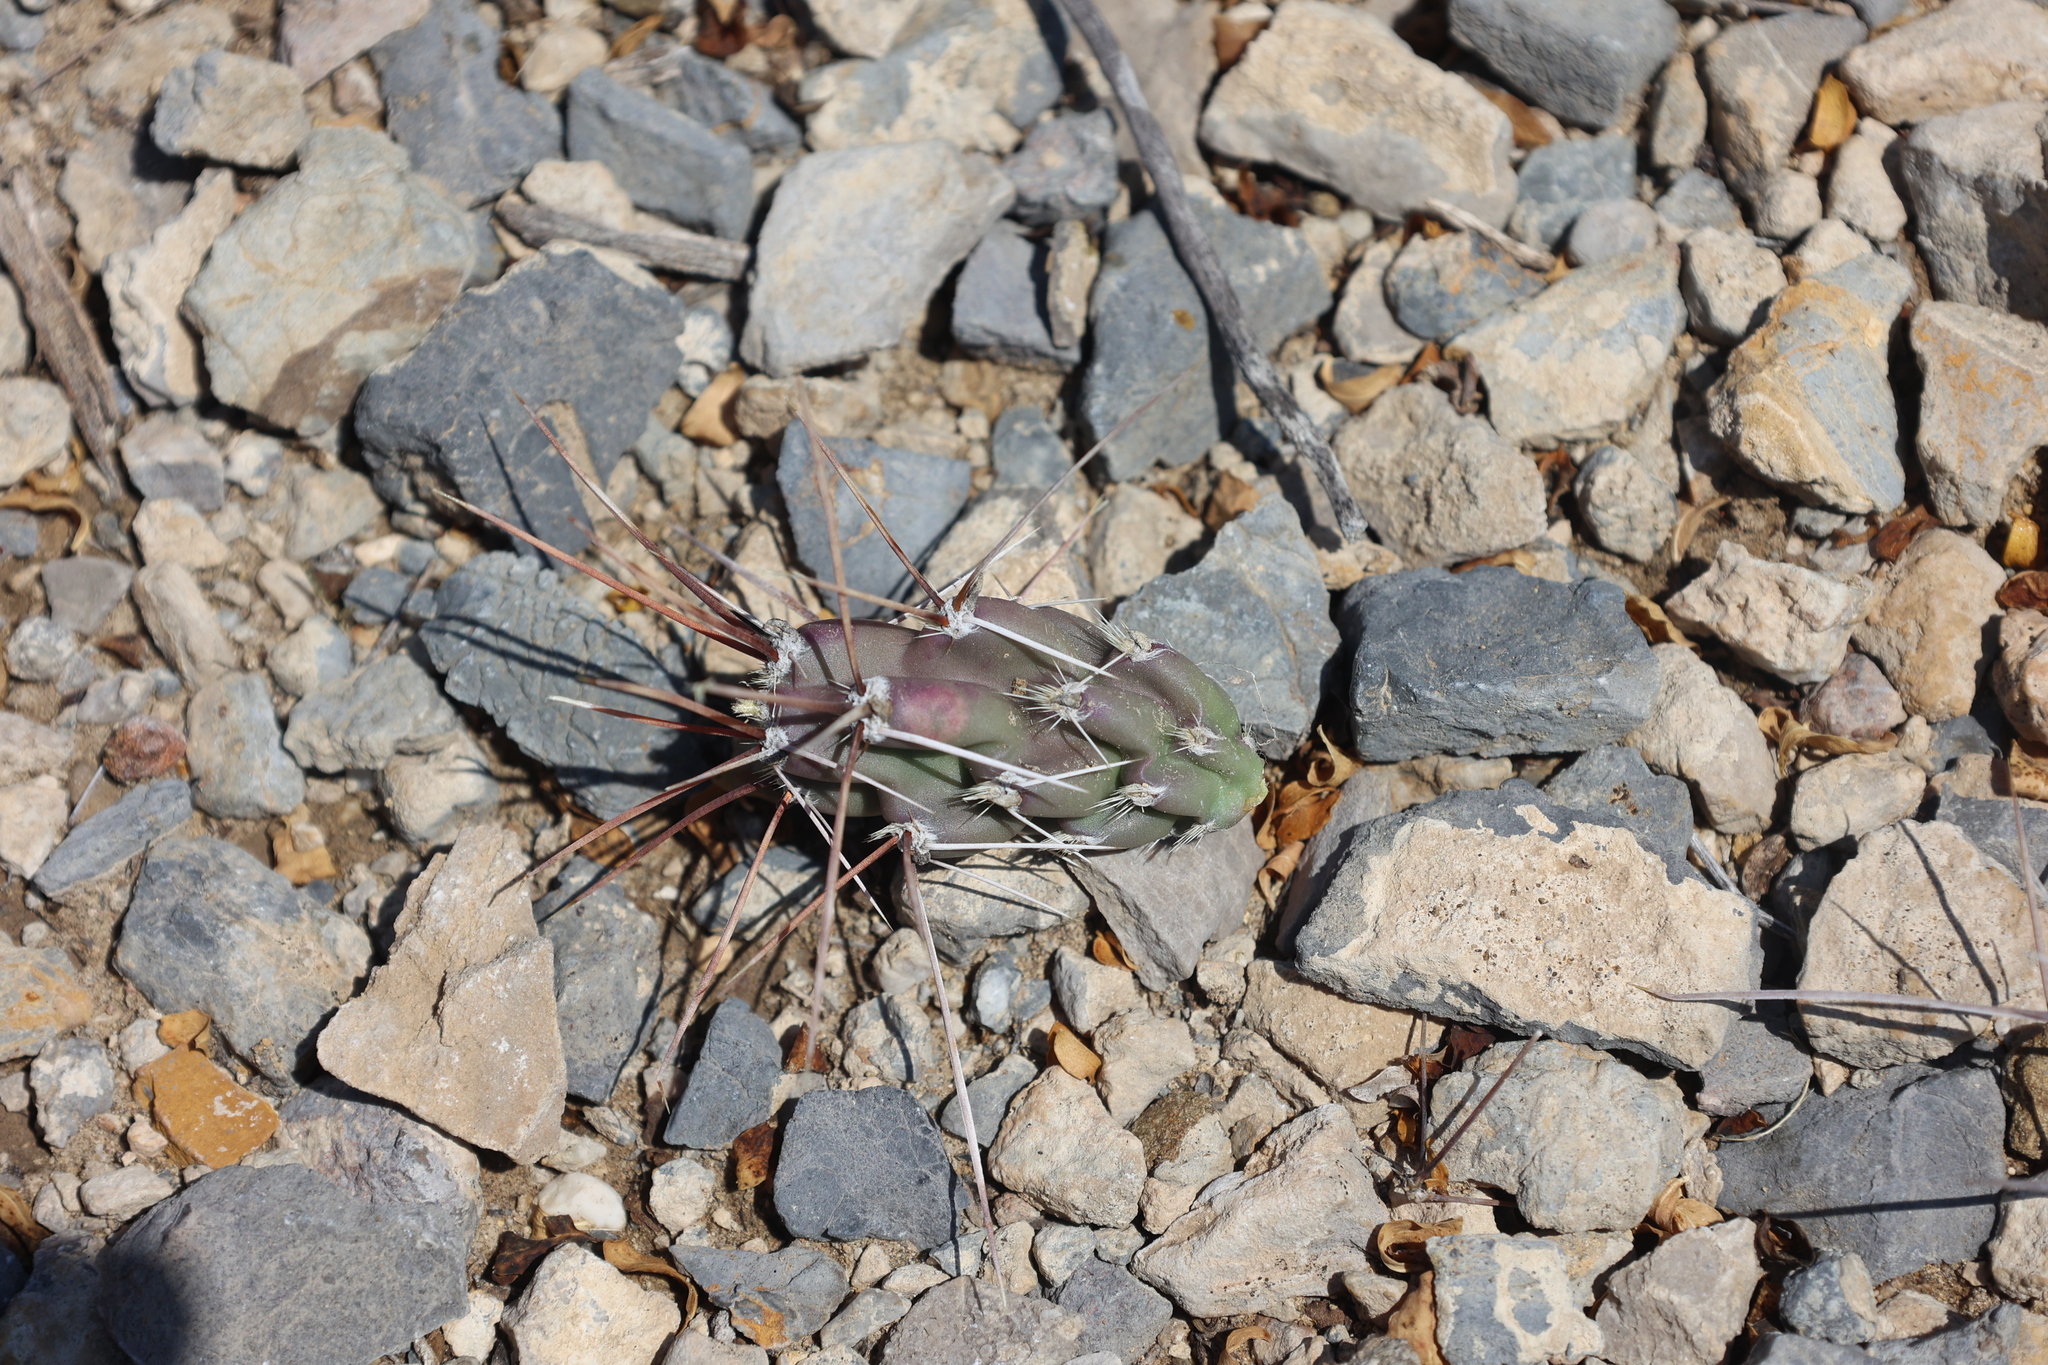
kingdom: Plantae
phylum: Tracheophyta
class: Magnoliopsida
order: Caryophyllales
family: Cactaceae
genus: Grusonia
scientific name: Grusonia schottii
